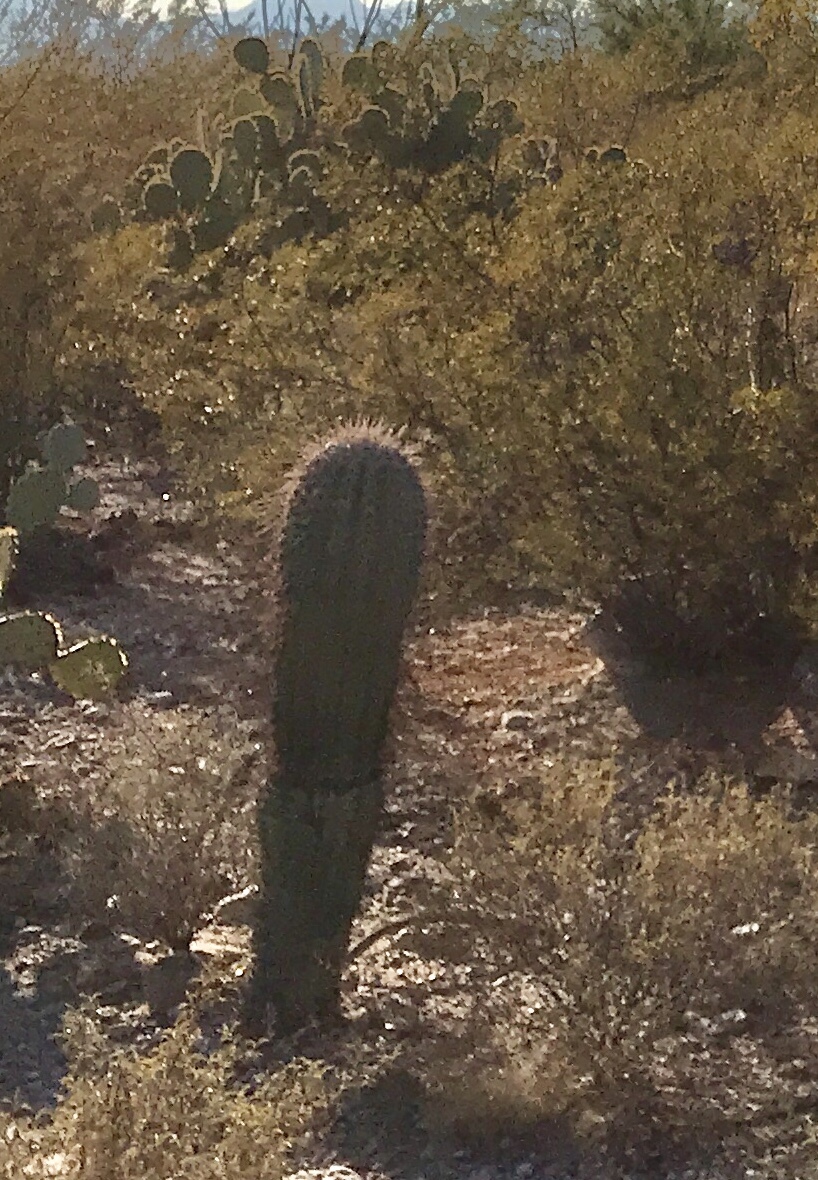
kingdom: Plantae
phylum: Tracheophyta
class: Magnoliopsida
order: Caryophyllales
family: Cactaceae
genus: Carnegiea
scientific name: Carnegiea gigantea
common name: Saguaro
